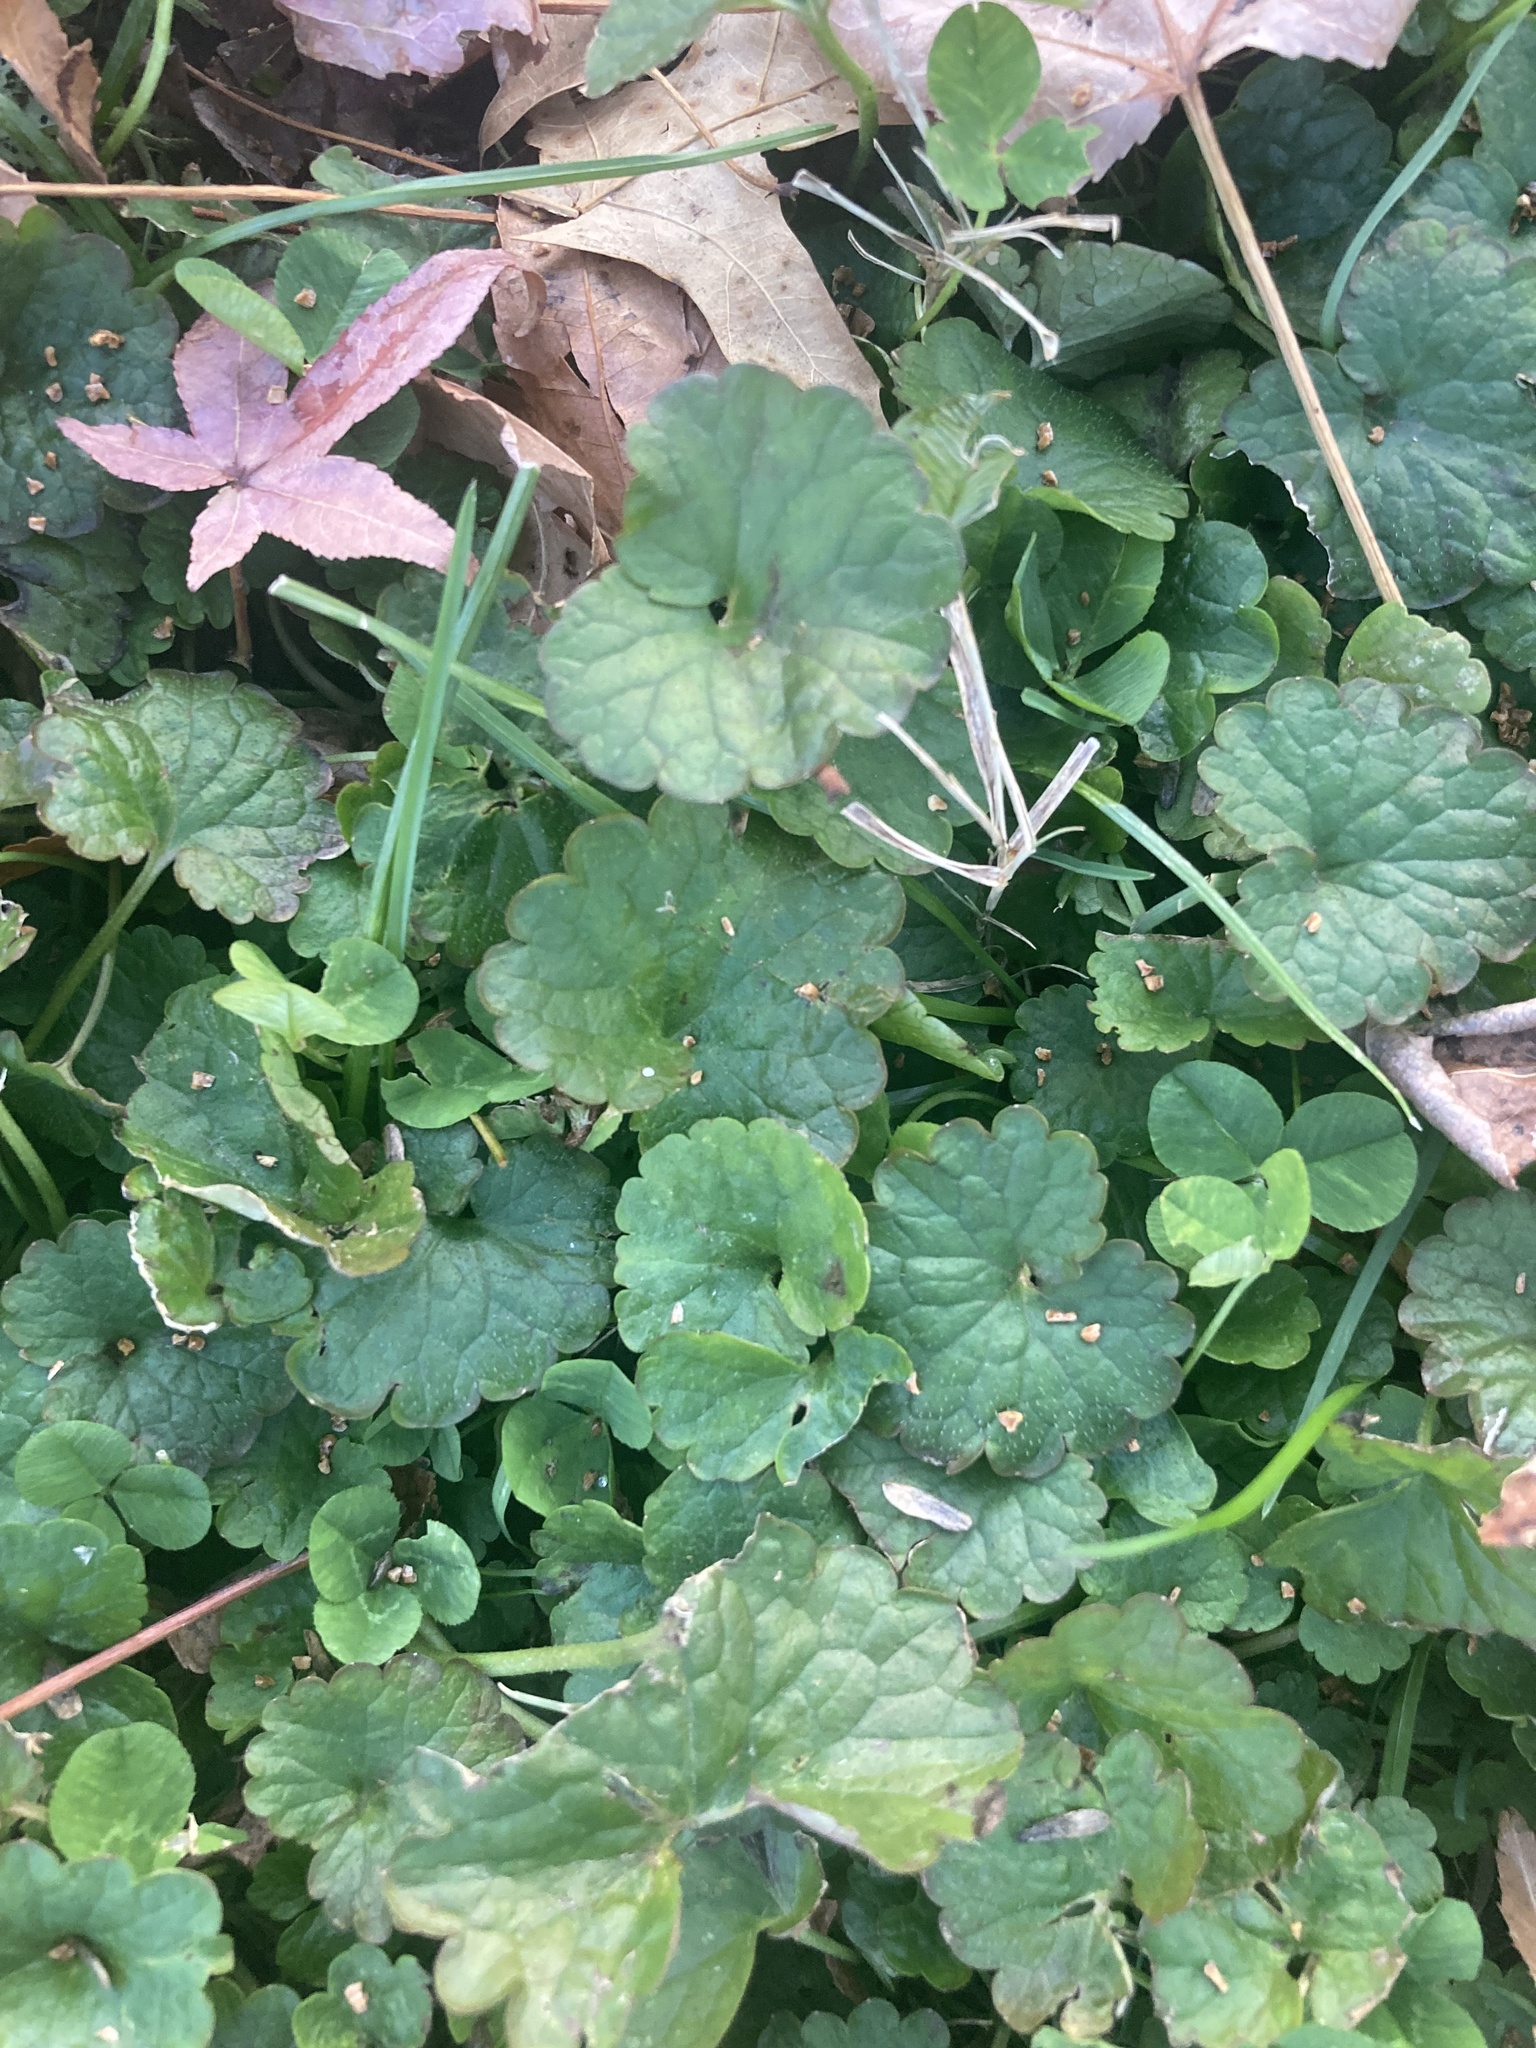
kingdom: Plantae
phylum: Tracheophyta
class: Magnoliopsida
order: Lamiales
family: Lamiaceae
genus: Glechoma
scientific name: Glechoma hederacea
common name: Ground ivy
